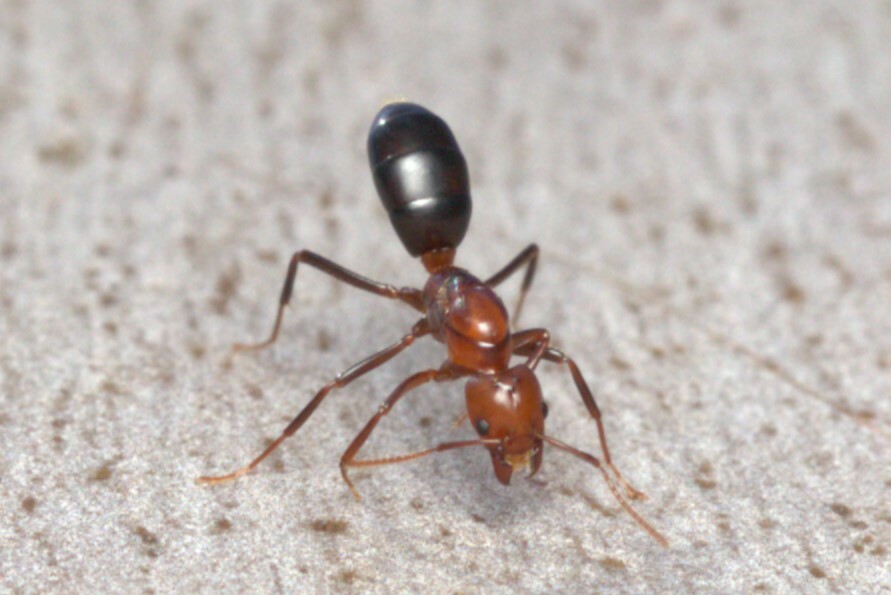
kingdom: Animalia
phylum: Arthropoda
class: Insecta
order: Hymenoptera
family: Formicidae
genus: Papyrius
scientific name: Papyrius nitidus
